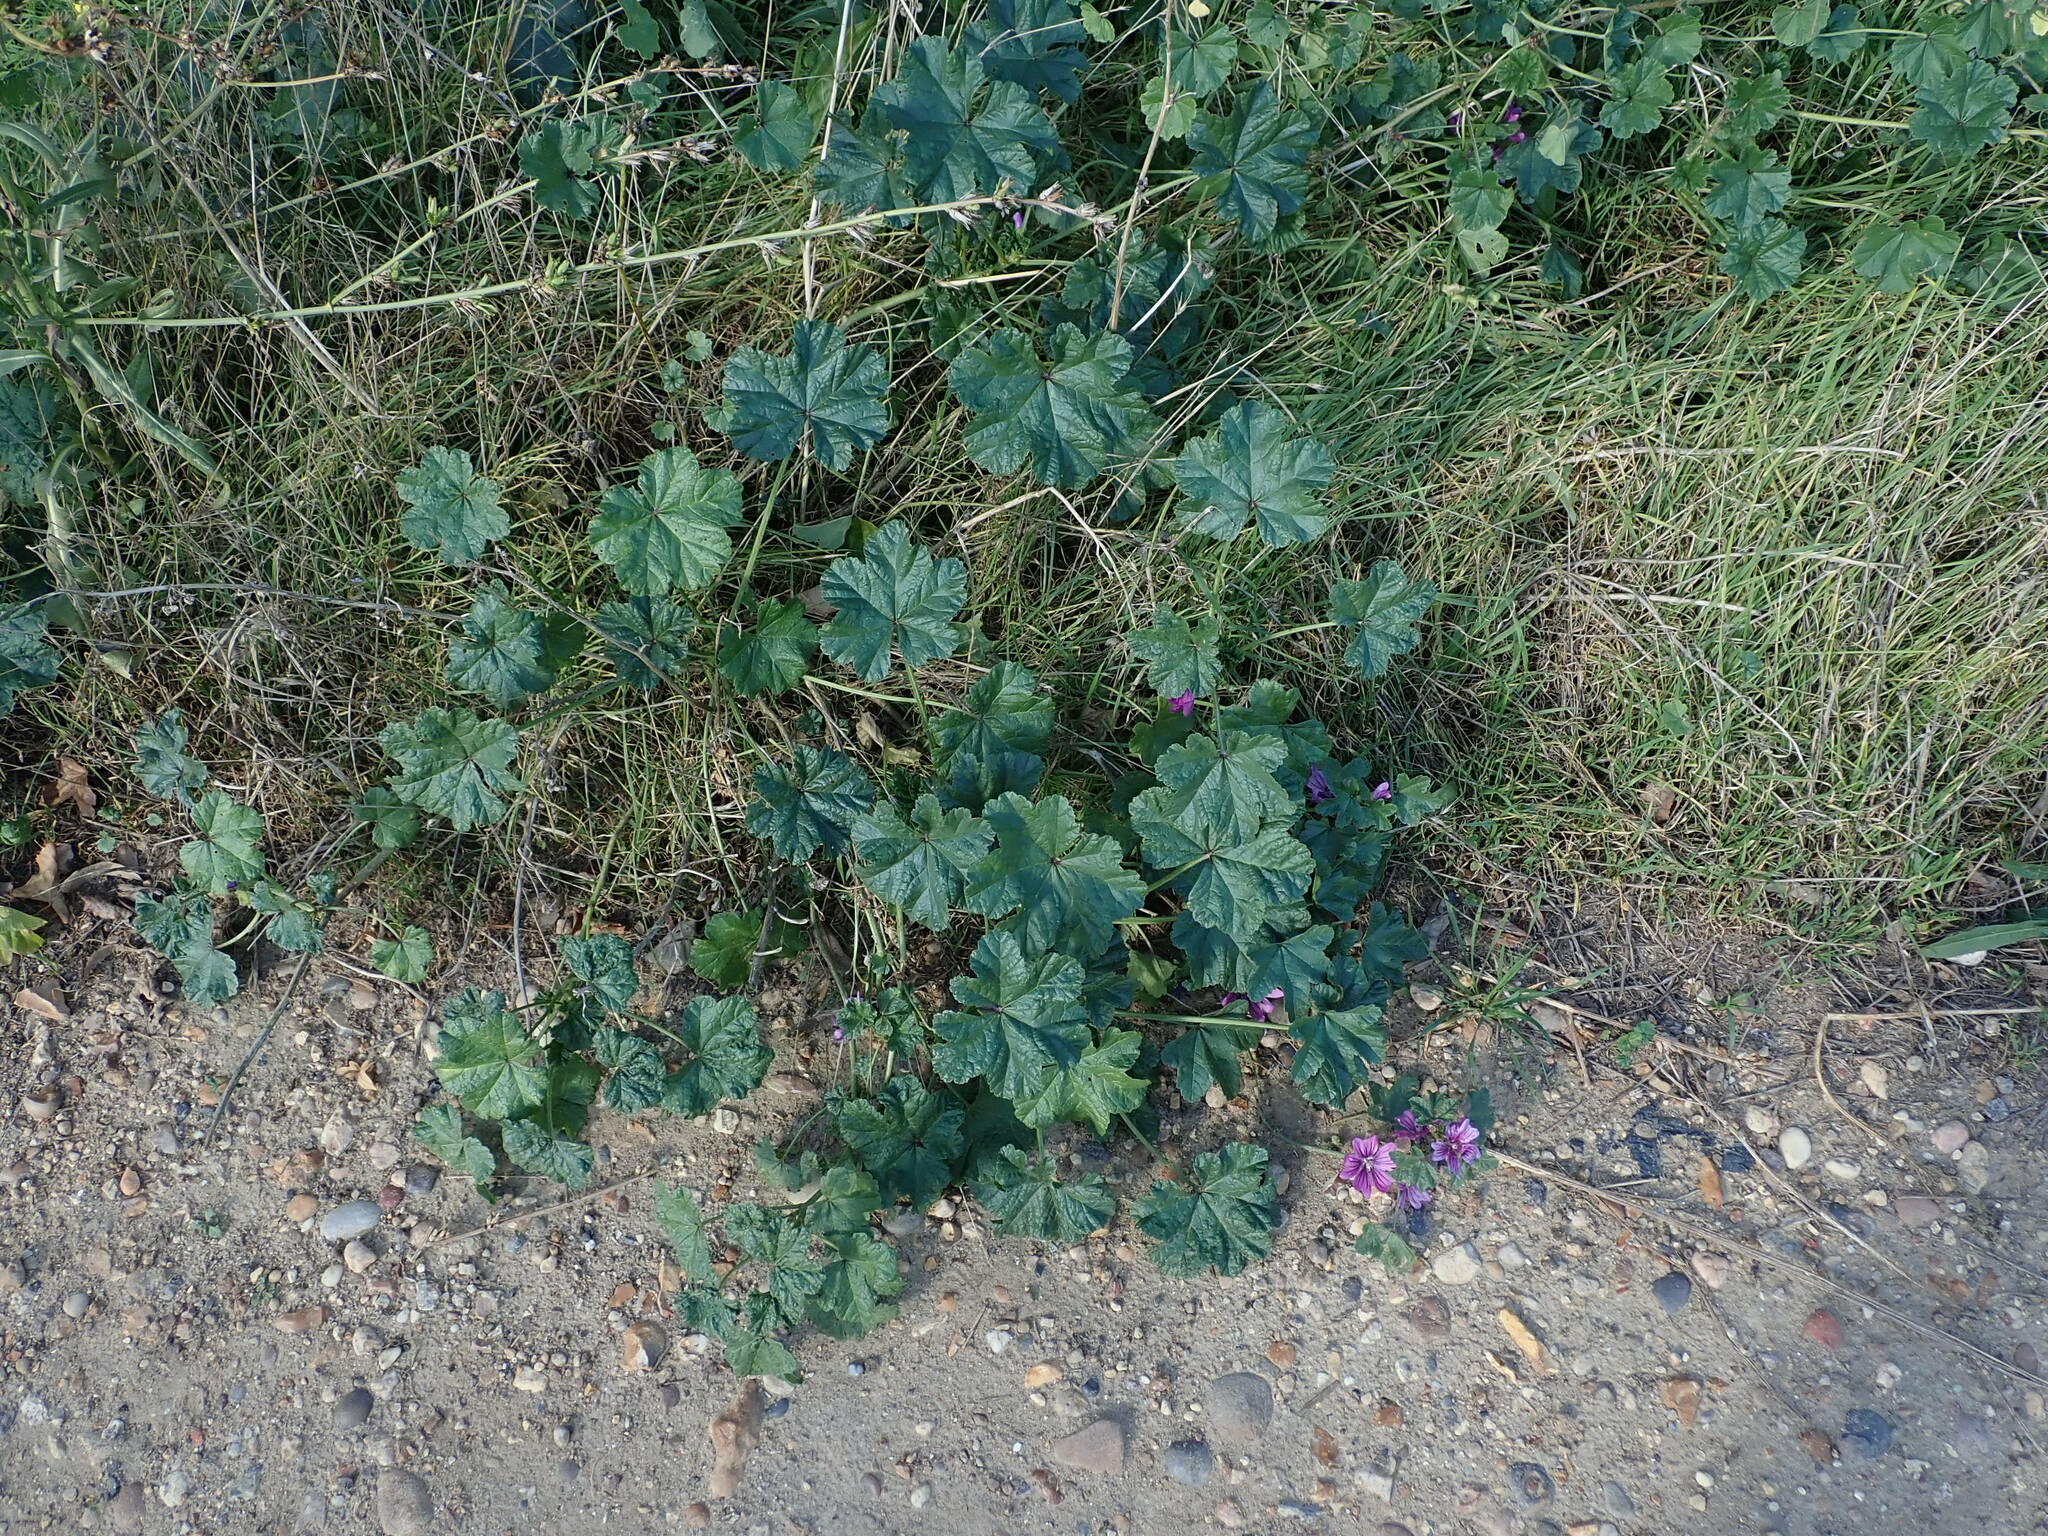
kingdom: Plantae
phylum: Tracheophyta
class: Magnoliopsida
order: Malvales
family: Malvaceae
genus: Malva
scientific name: Malva sylvestris
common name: Common mallow
